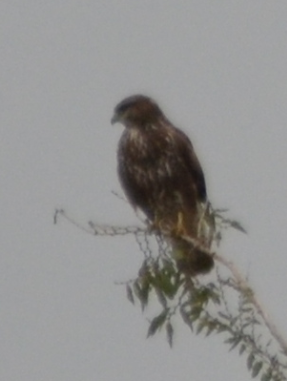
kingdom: Animalia
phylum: Chordata
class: Aves
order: Accipitriformes
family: Accipitridae
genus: Buteo
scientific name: Buteo buteo
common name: Common buzzard
